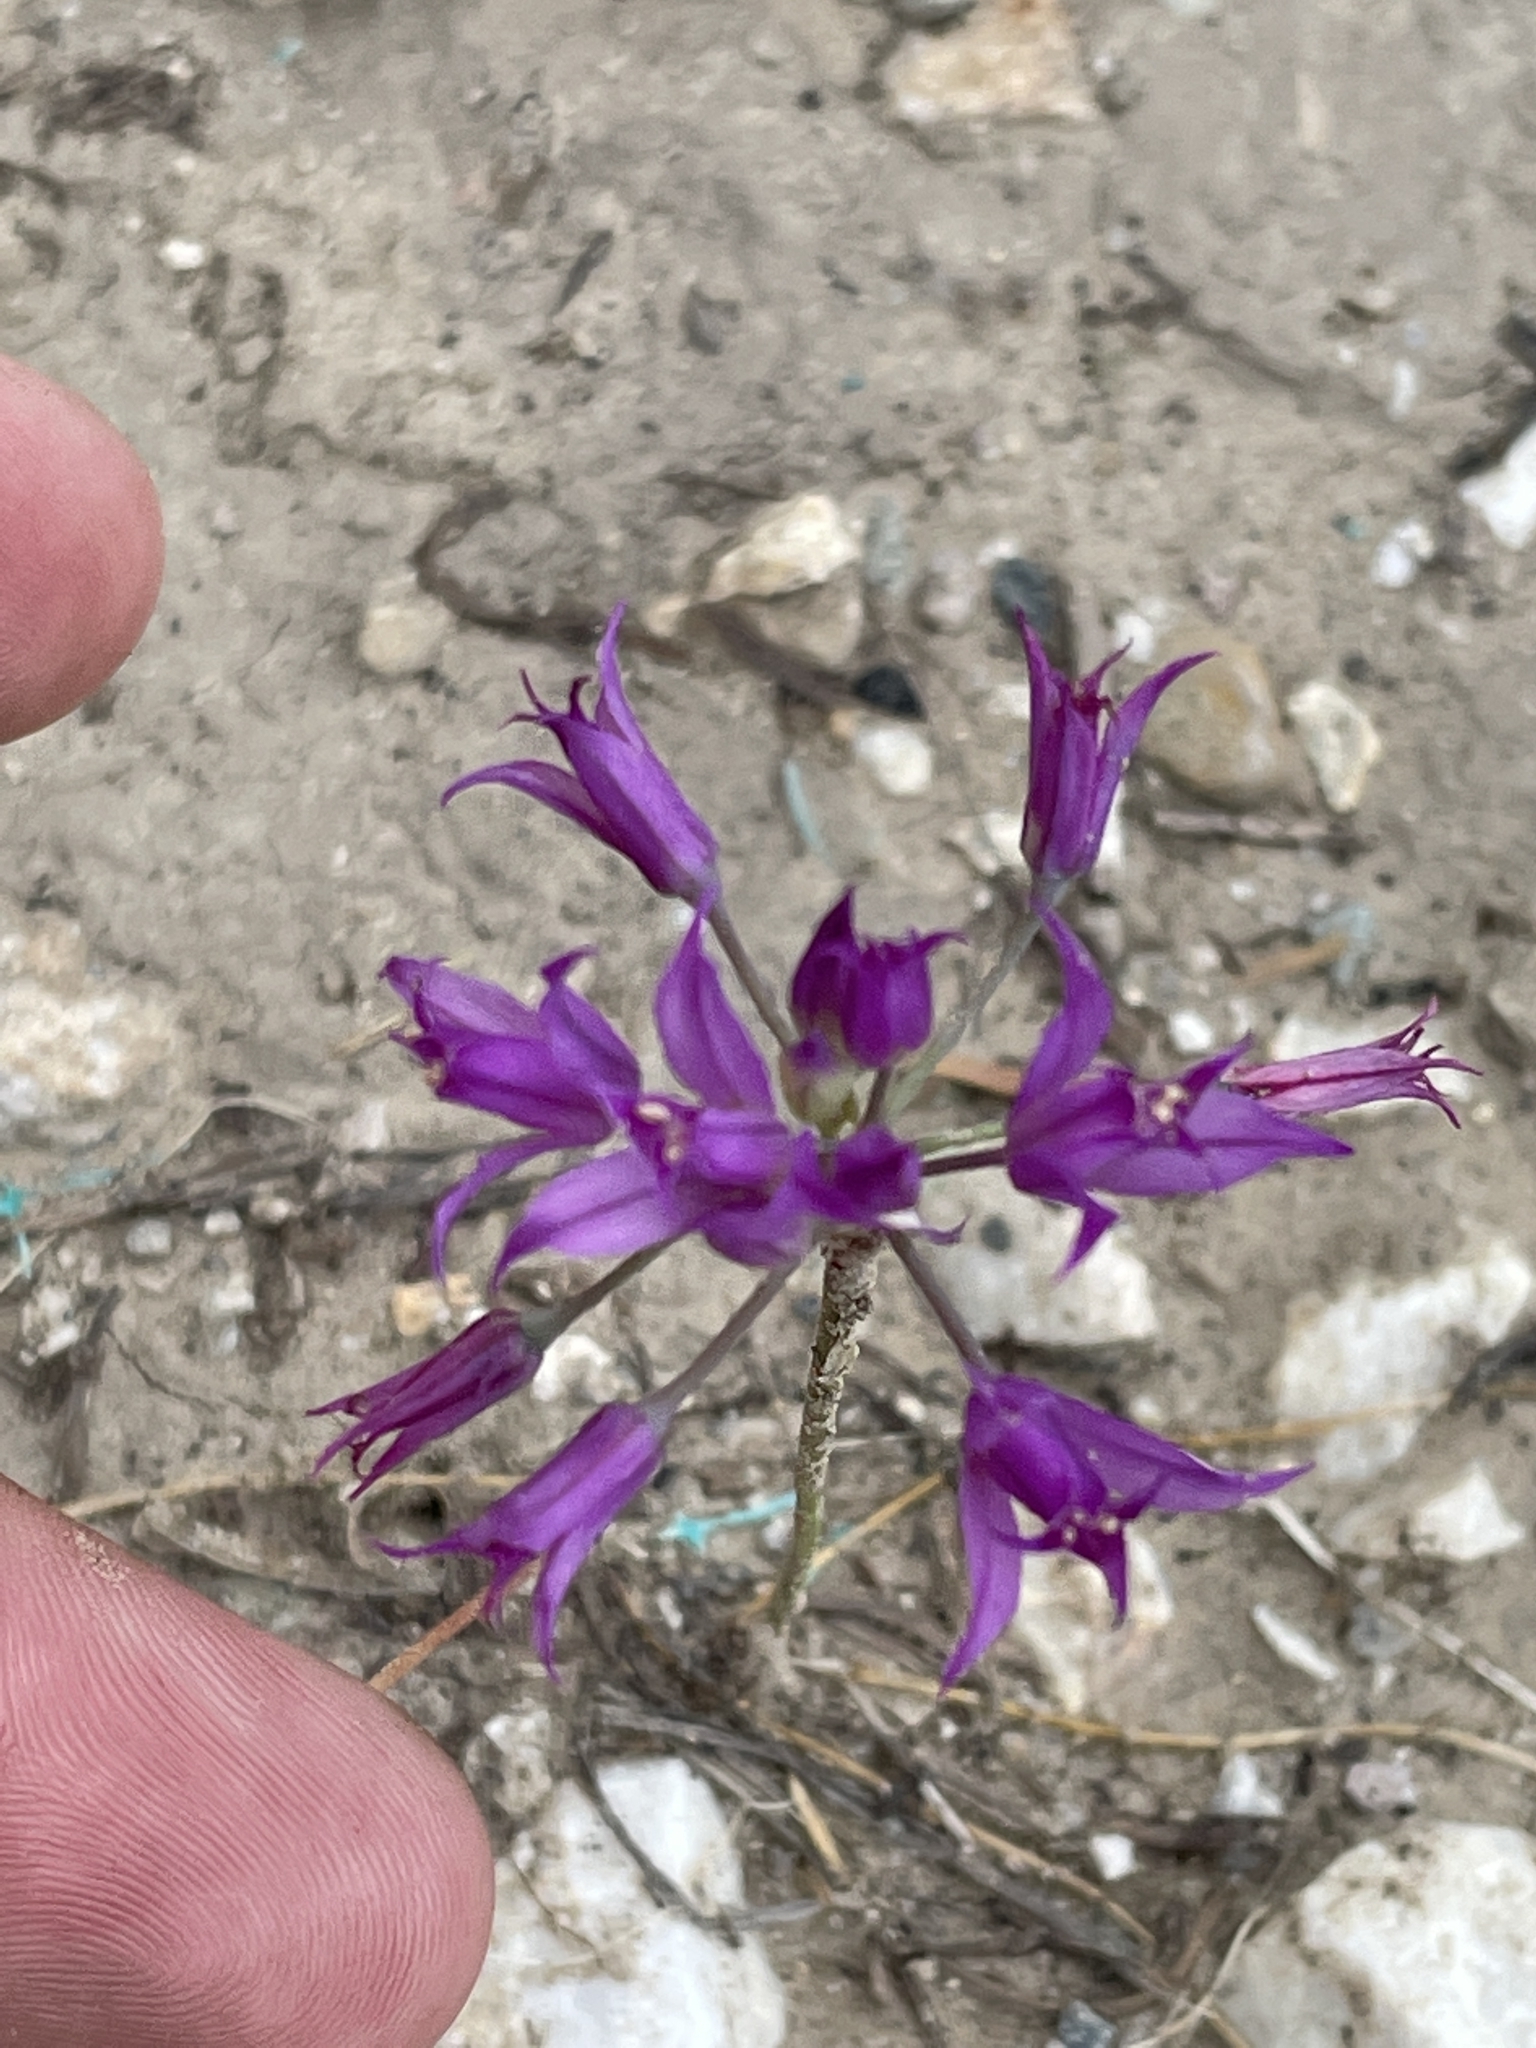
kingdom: Plantae
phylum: Tracheophyta
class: Liliopsida
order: Asparagales
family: Amaryllidaceae
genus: Allium
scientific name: Allium acuminatum
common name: Hooker's onion
